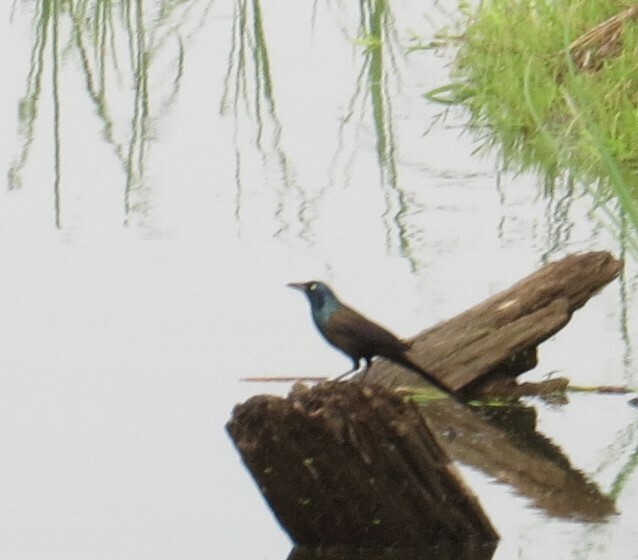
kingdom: Animalia
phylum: Chordata
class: Aves
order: Passeriformes
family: Icteridae
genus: Quiscalus
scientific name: Quiscalus quiscula
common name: Common grackle
